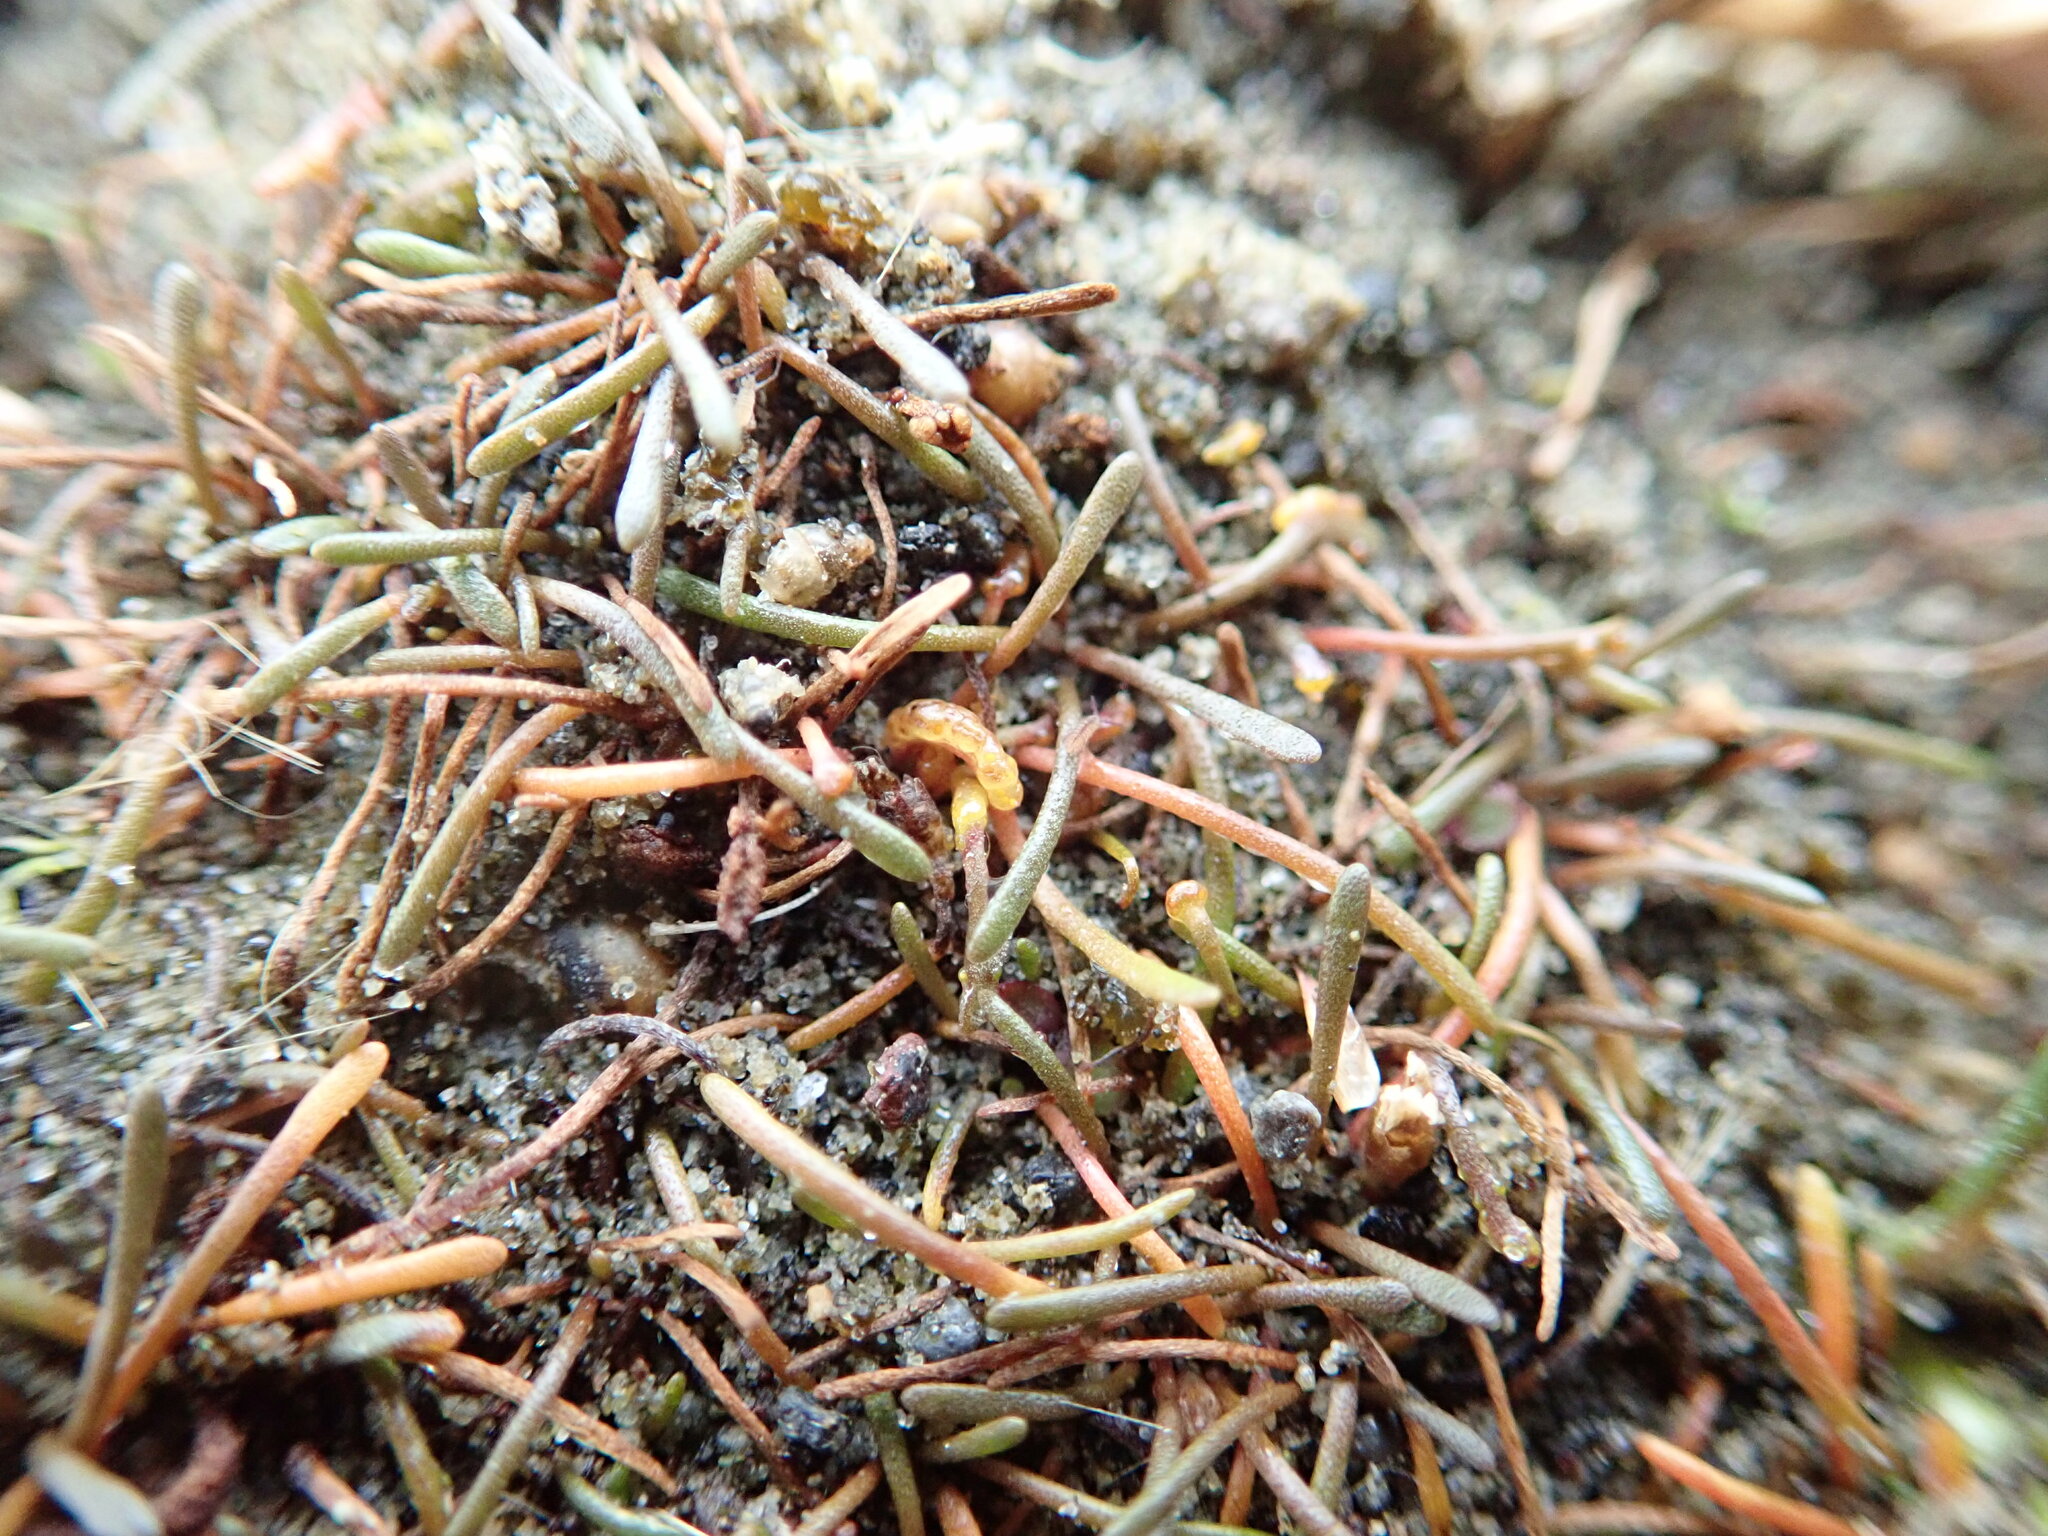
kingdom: Fungi
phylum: Chytridiomycota
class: Chytridiomycetes
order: Chytridiales
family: Synchytriaceae
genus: Synchytrium
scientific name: Synchytrium limosellae
